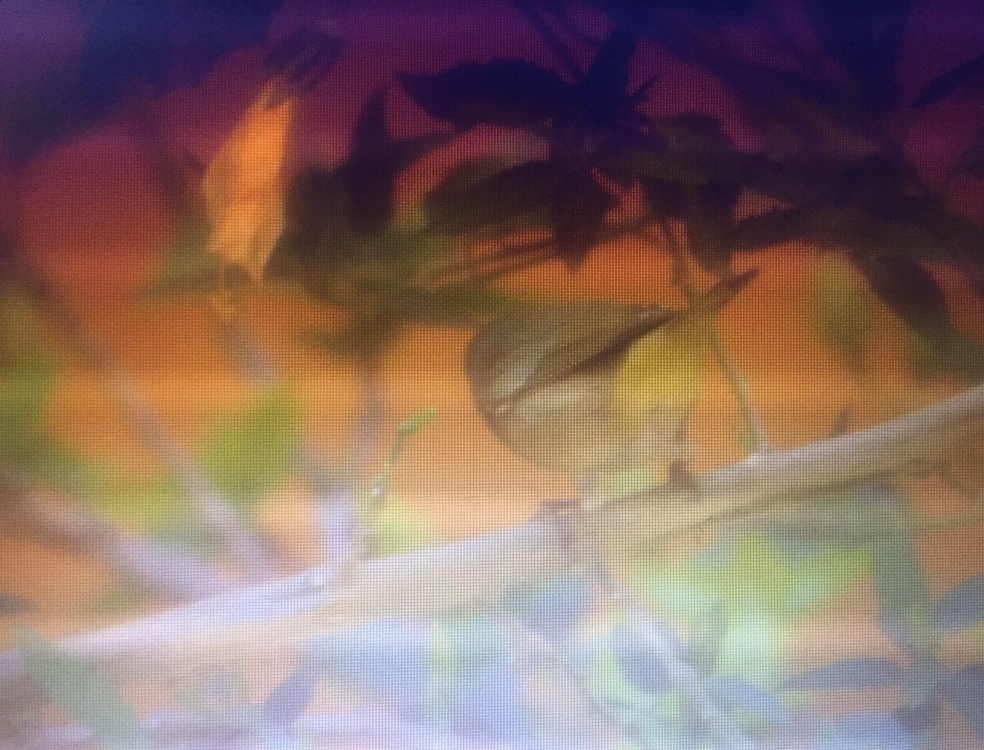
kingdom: Animalia
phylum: Chordata
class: Aves
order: Passeriformes
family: Parulidae
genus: Leiothlypis
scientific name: Leiothlypis celata
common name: Orange-crowned warbler
